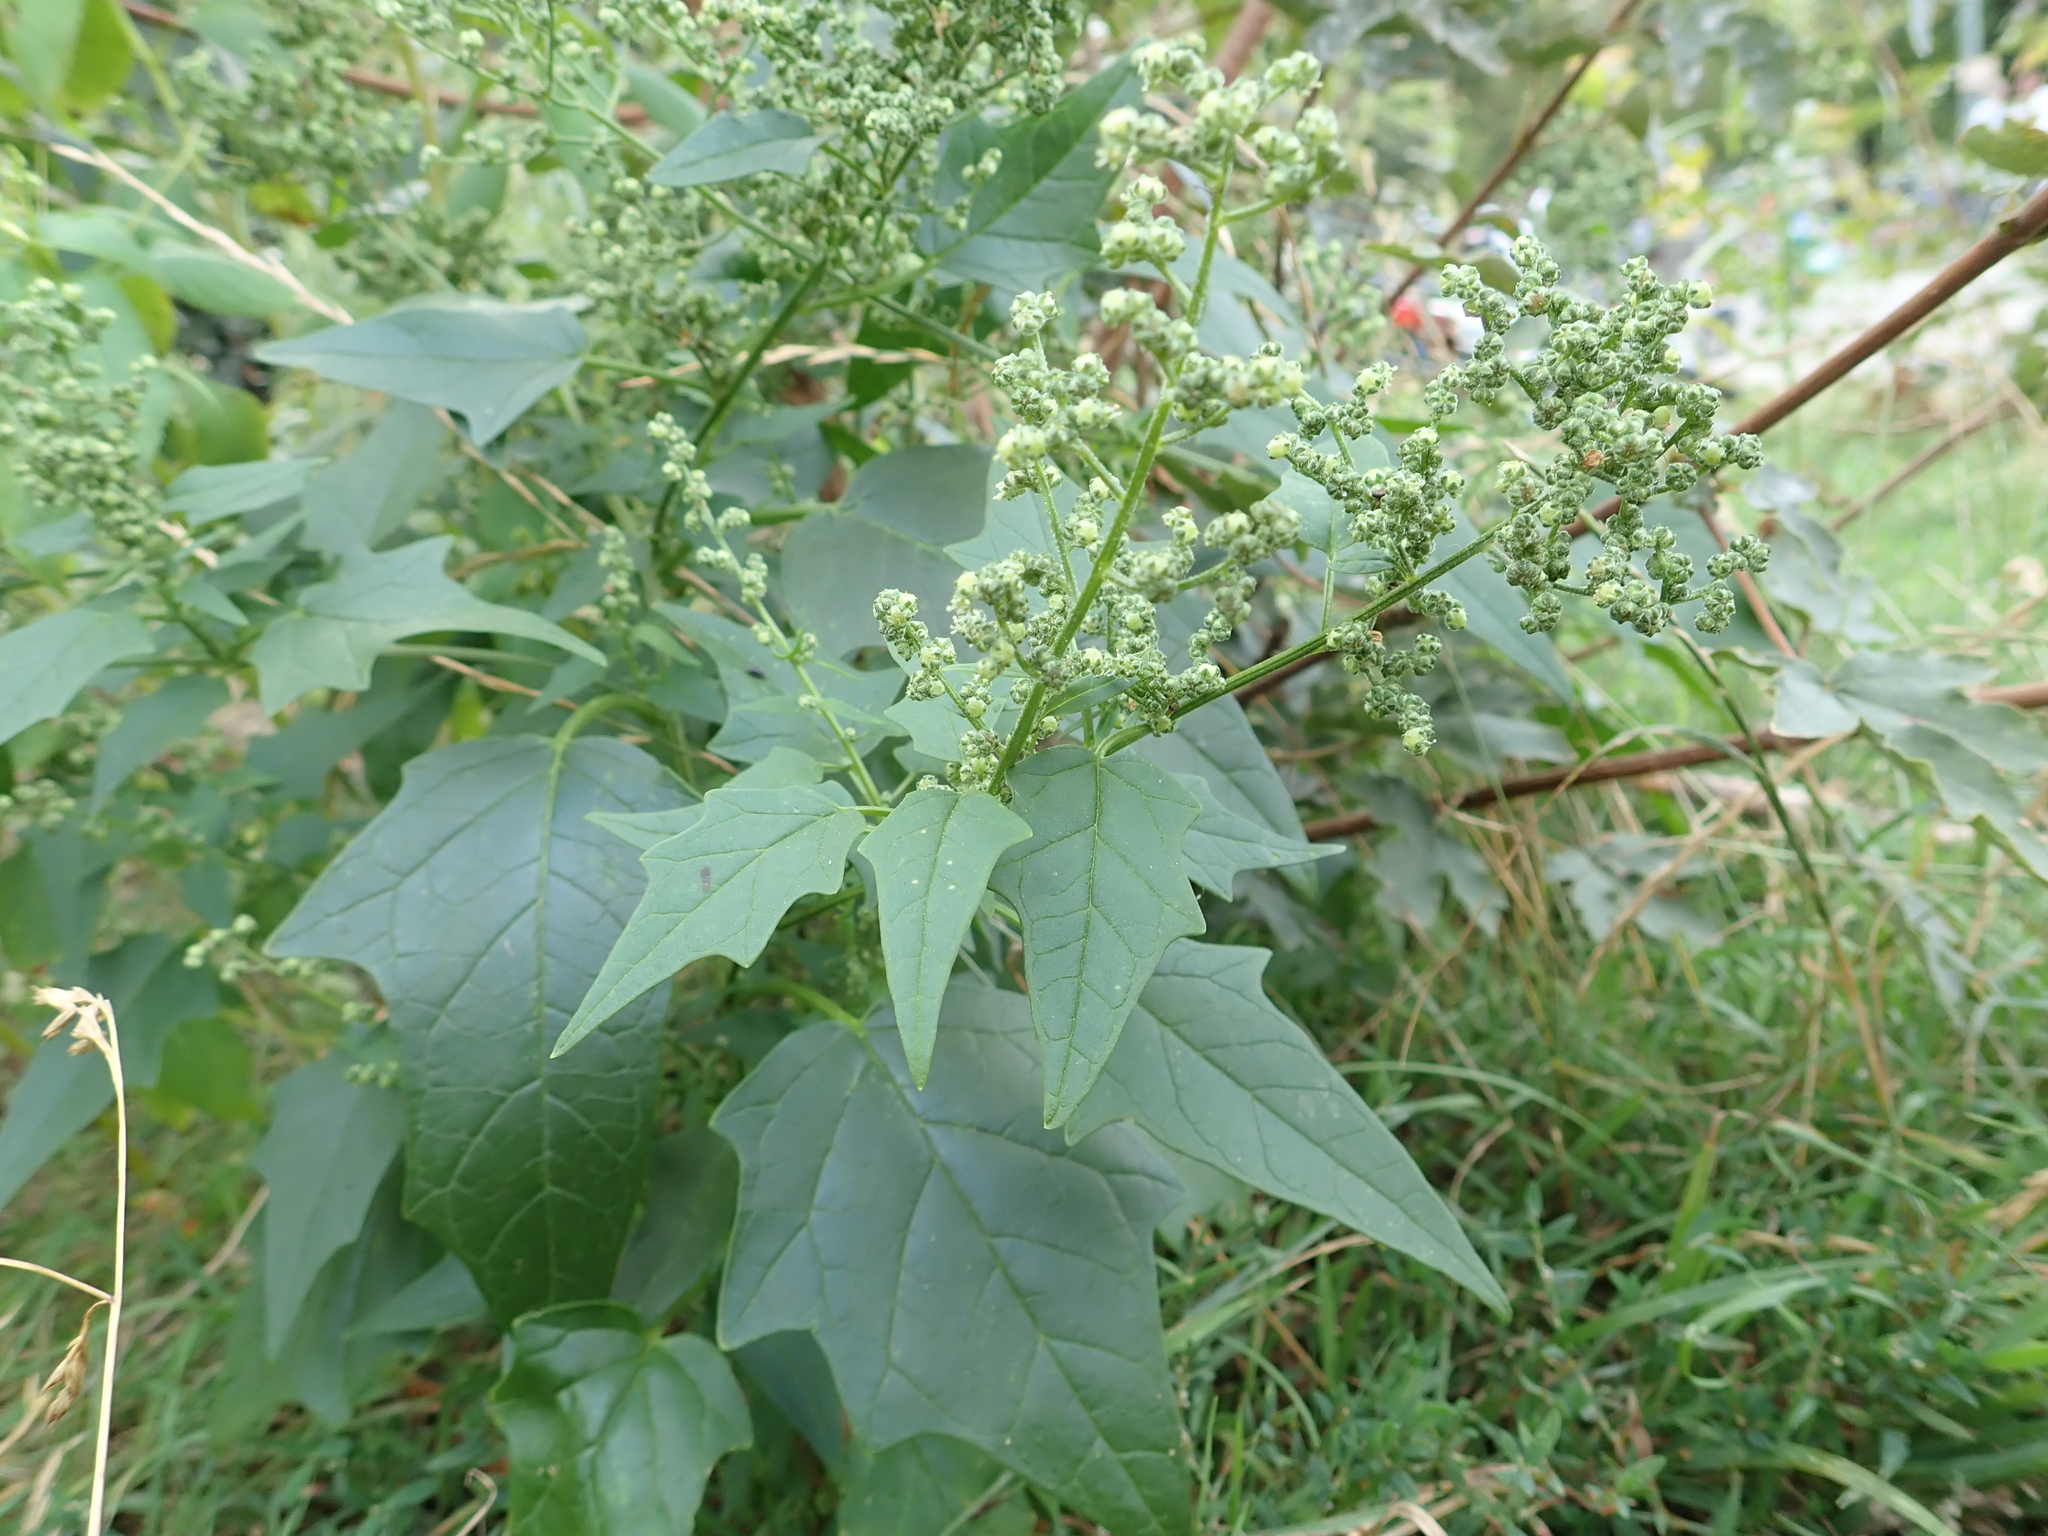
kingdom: Plantae
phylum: Tracheophyta
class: Magnoliopsida
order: Caryophyllales
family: Amaranthaceae
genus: Chenopodiastrum
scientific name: Chenopodiastrum hybridum
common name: Mapleleaf goosefoot
